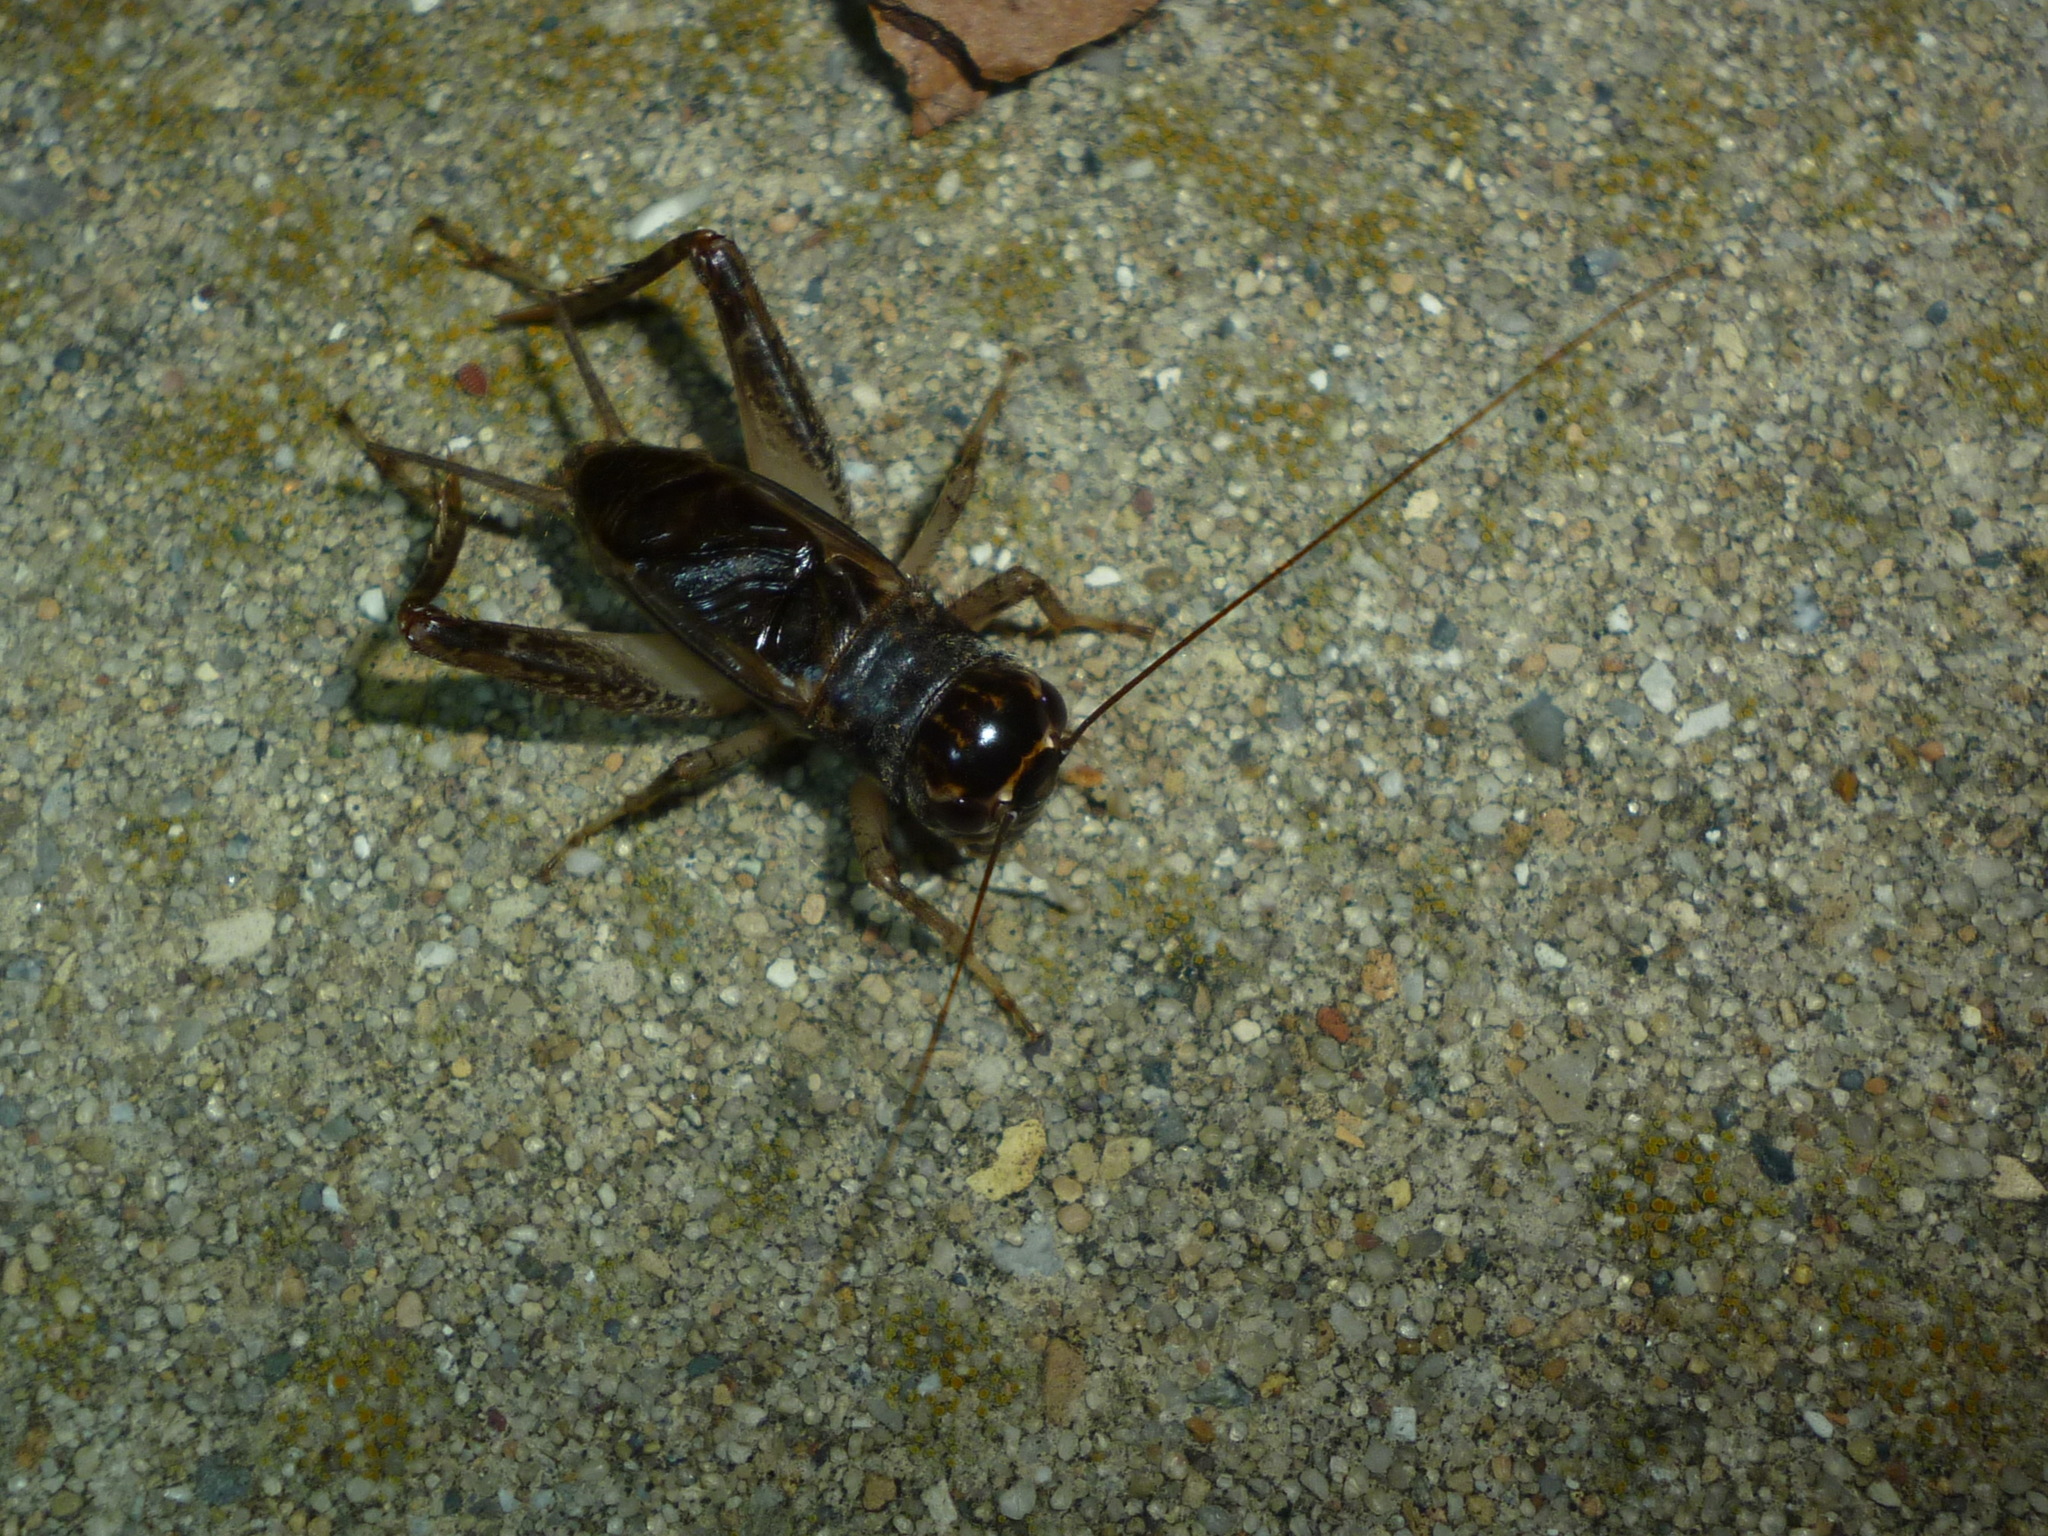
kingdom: Animalia
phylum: Arthropoda
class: Insecta
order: Orthoptera
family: Gryllidae
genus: Velarifictorus
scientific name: Velarifictorus micado
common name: Japanese burrowing cricket
